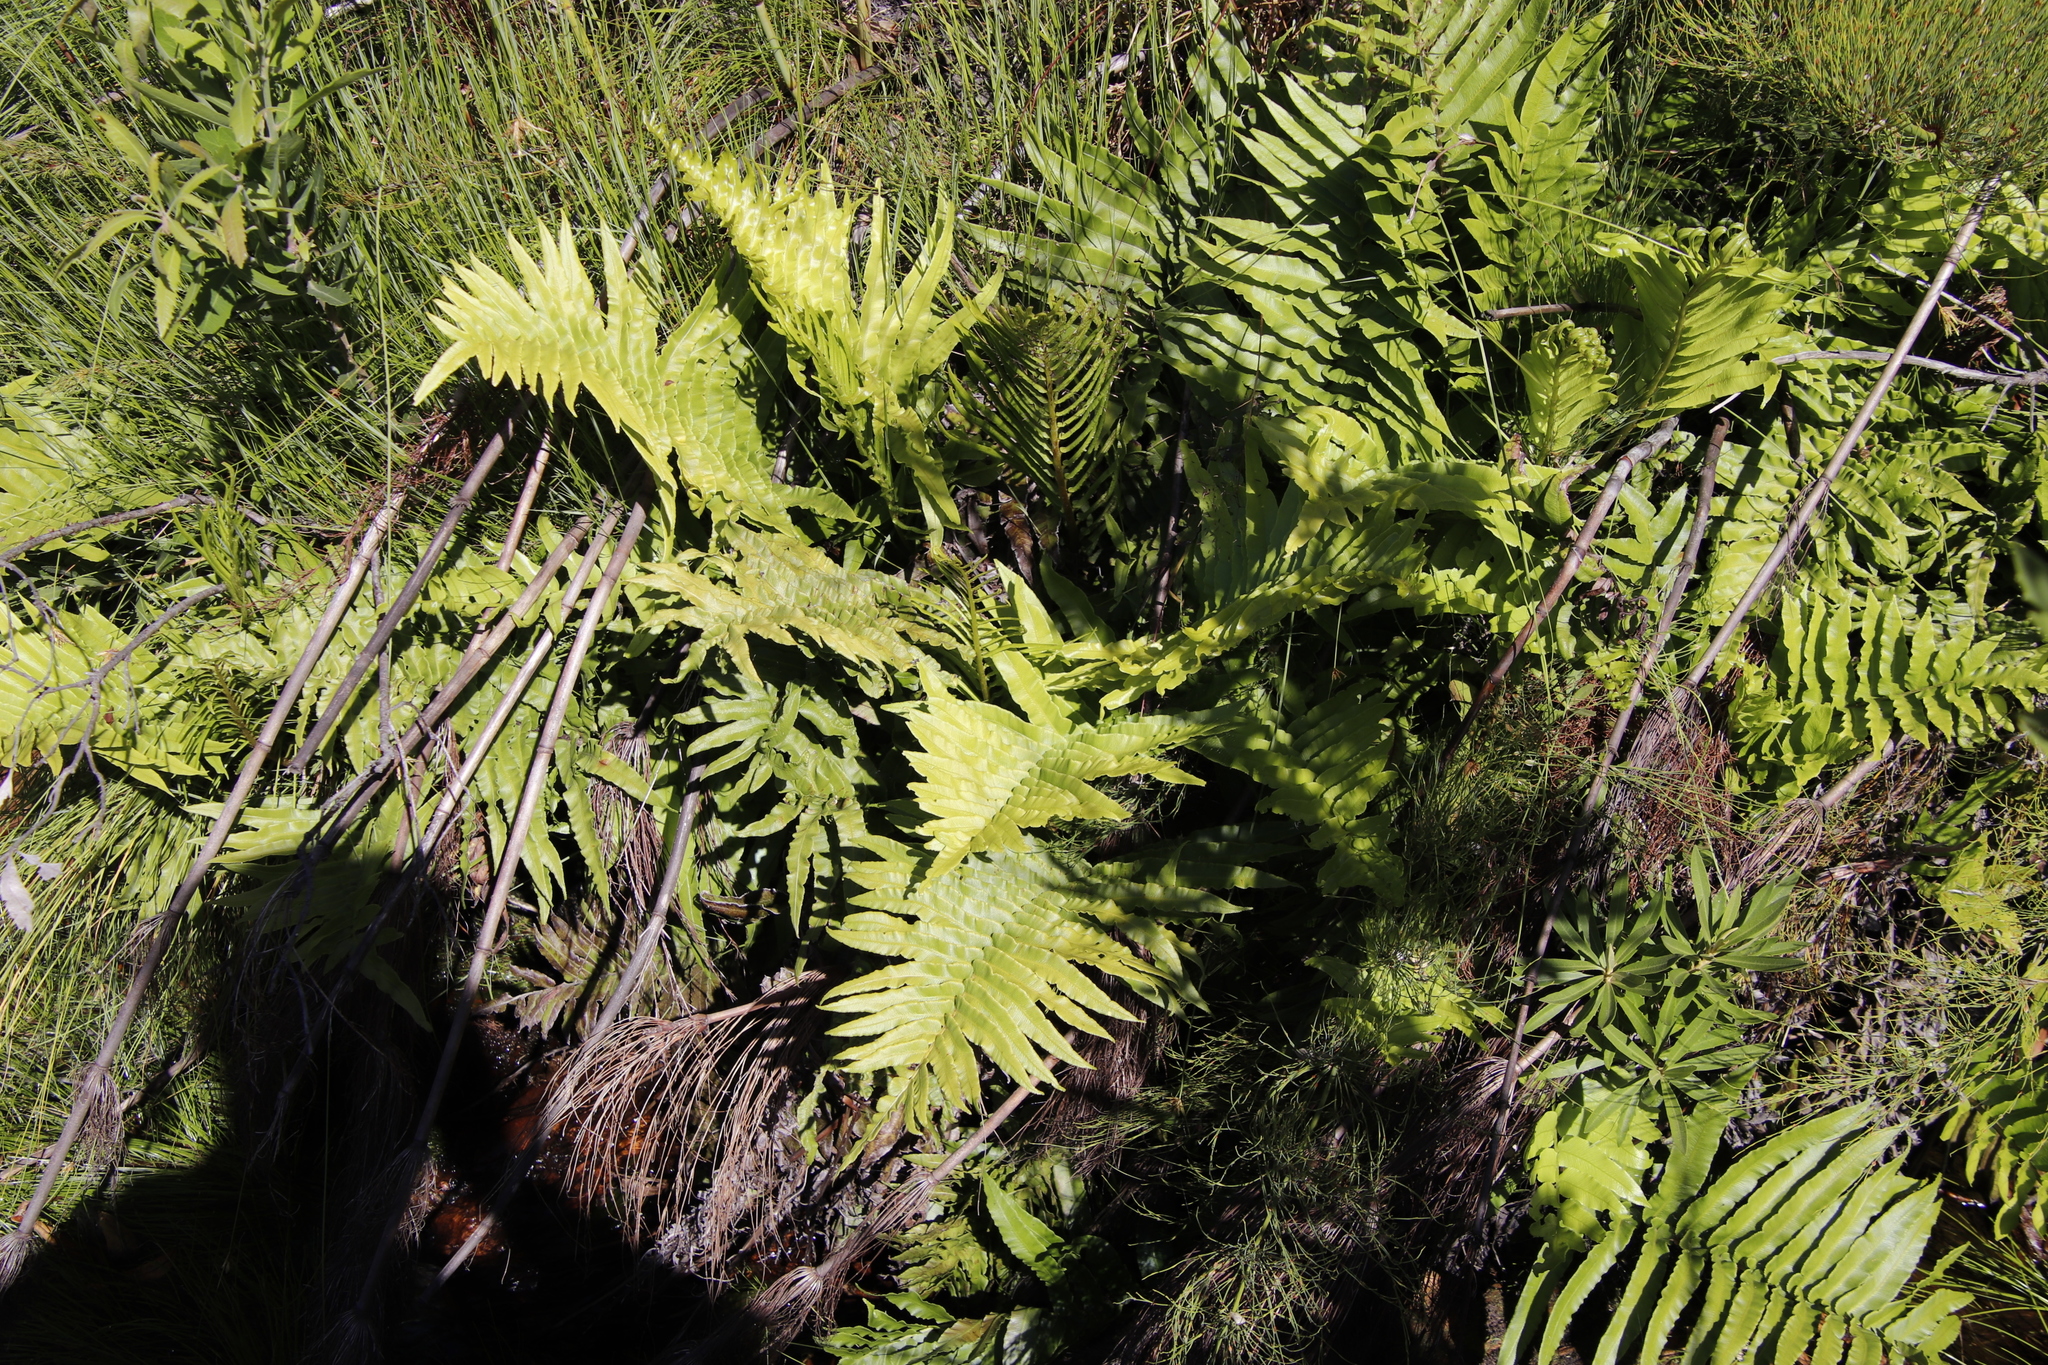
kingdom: Plantae
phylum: Tracheophyta
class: Polypodiopsida
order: Polypodiales
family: Blechnaceae
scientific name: Blechnaceae
